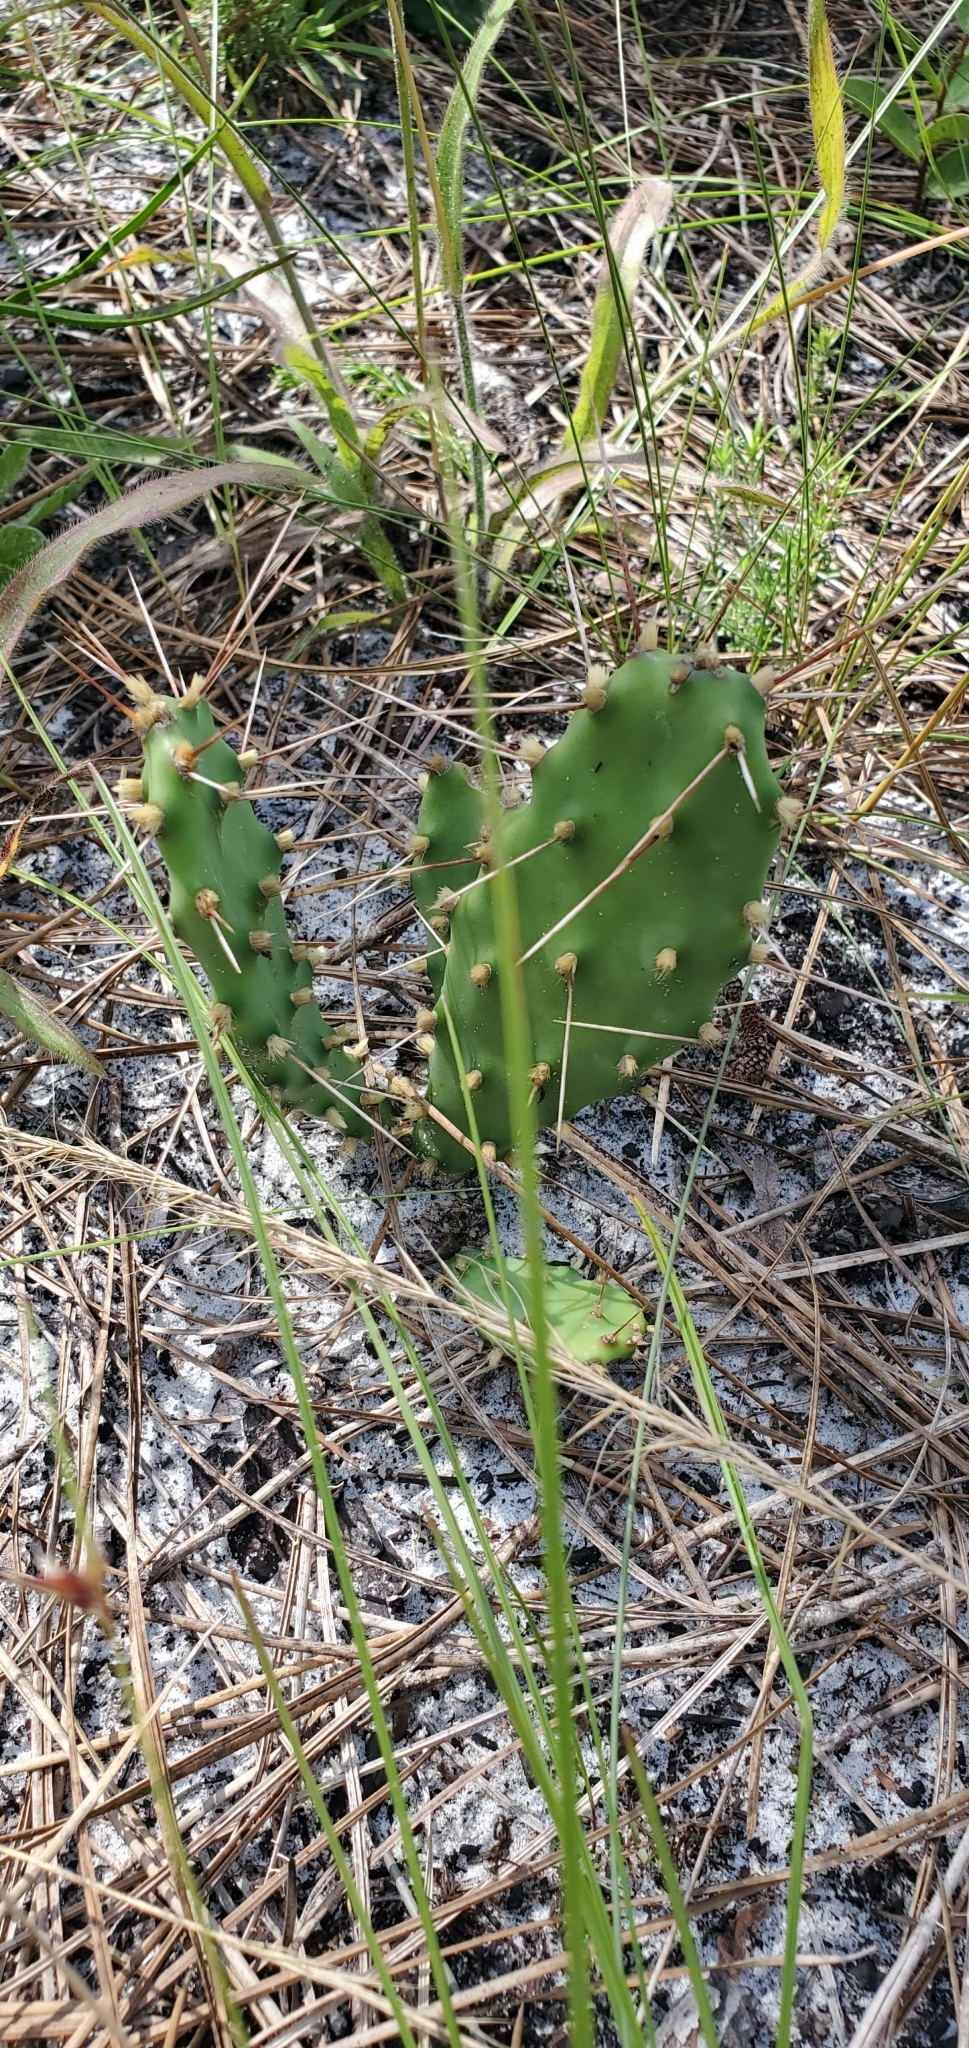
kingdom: Plantae
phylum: Tracheophyta
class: Magnoliopsida
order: Caryophyllales
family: Cactaceae
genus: Opuntia
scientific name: Opuntia austrina
